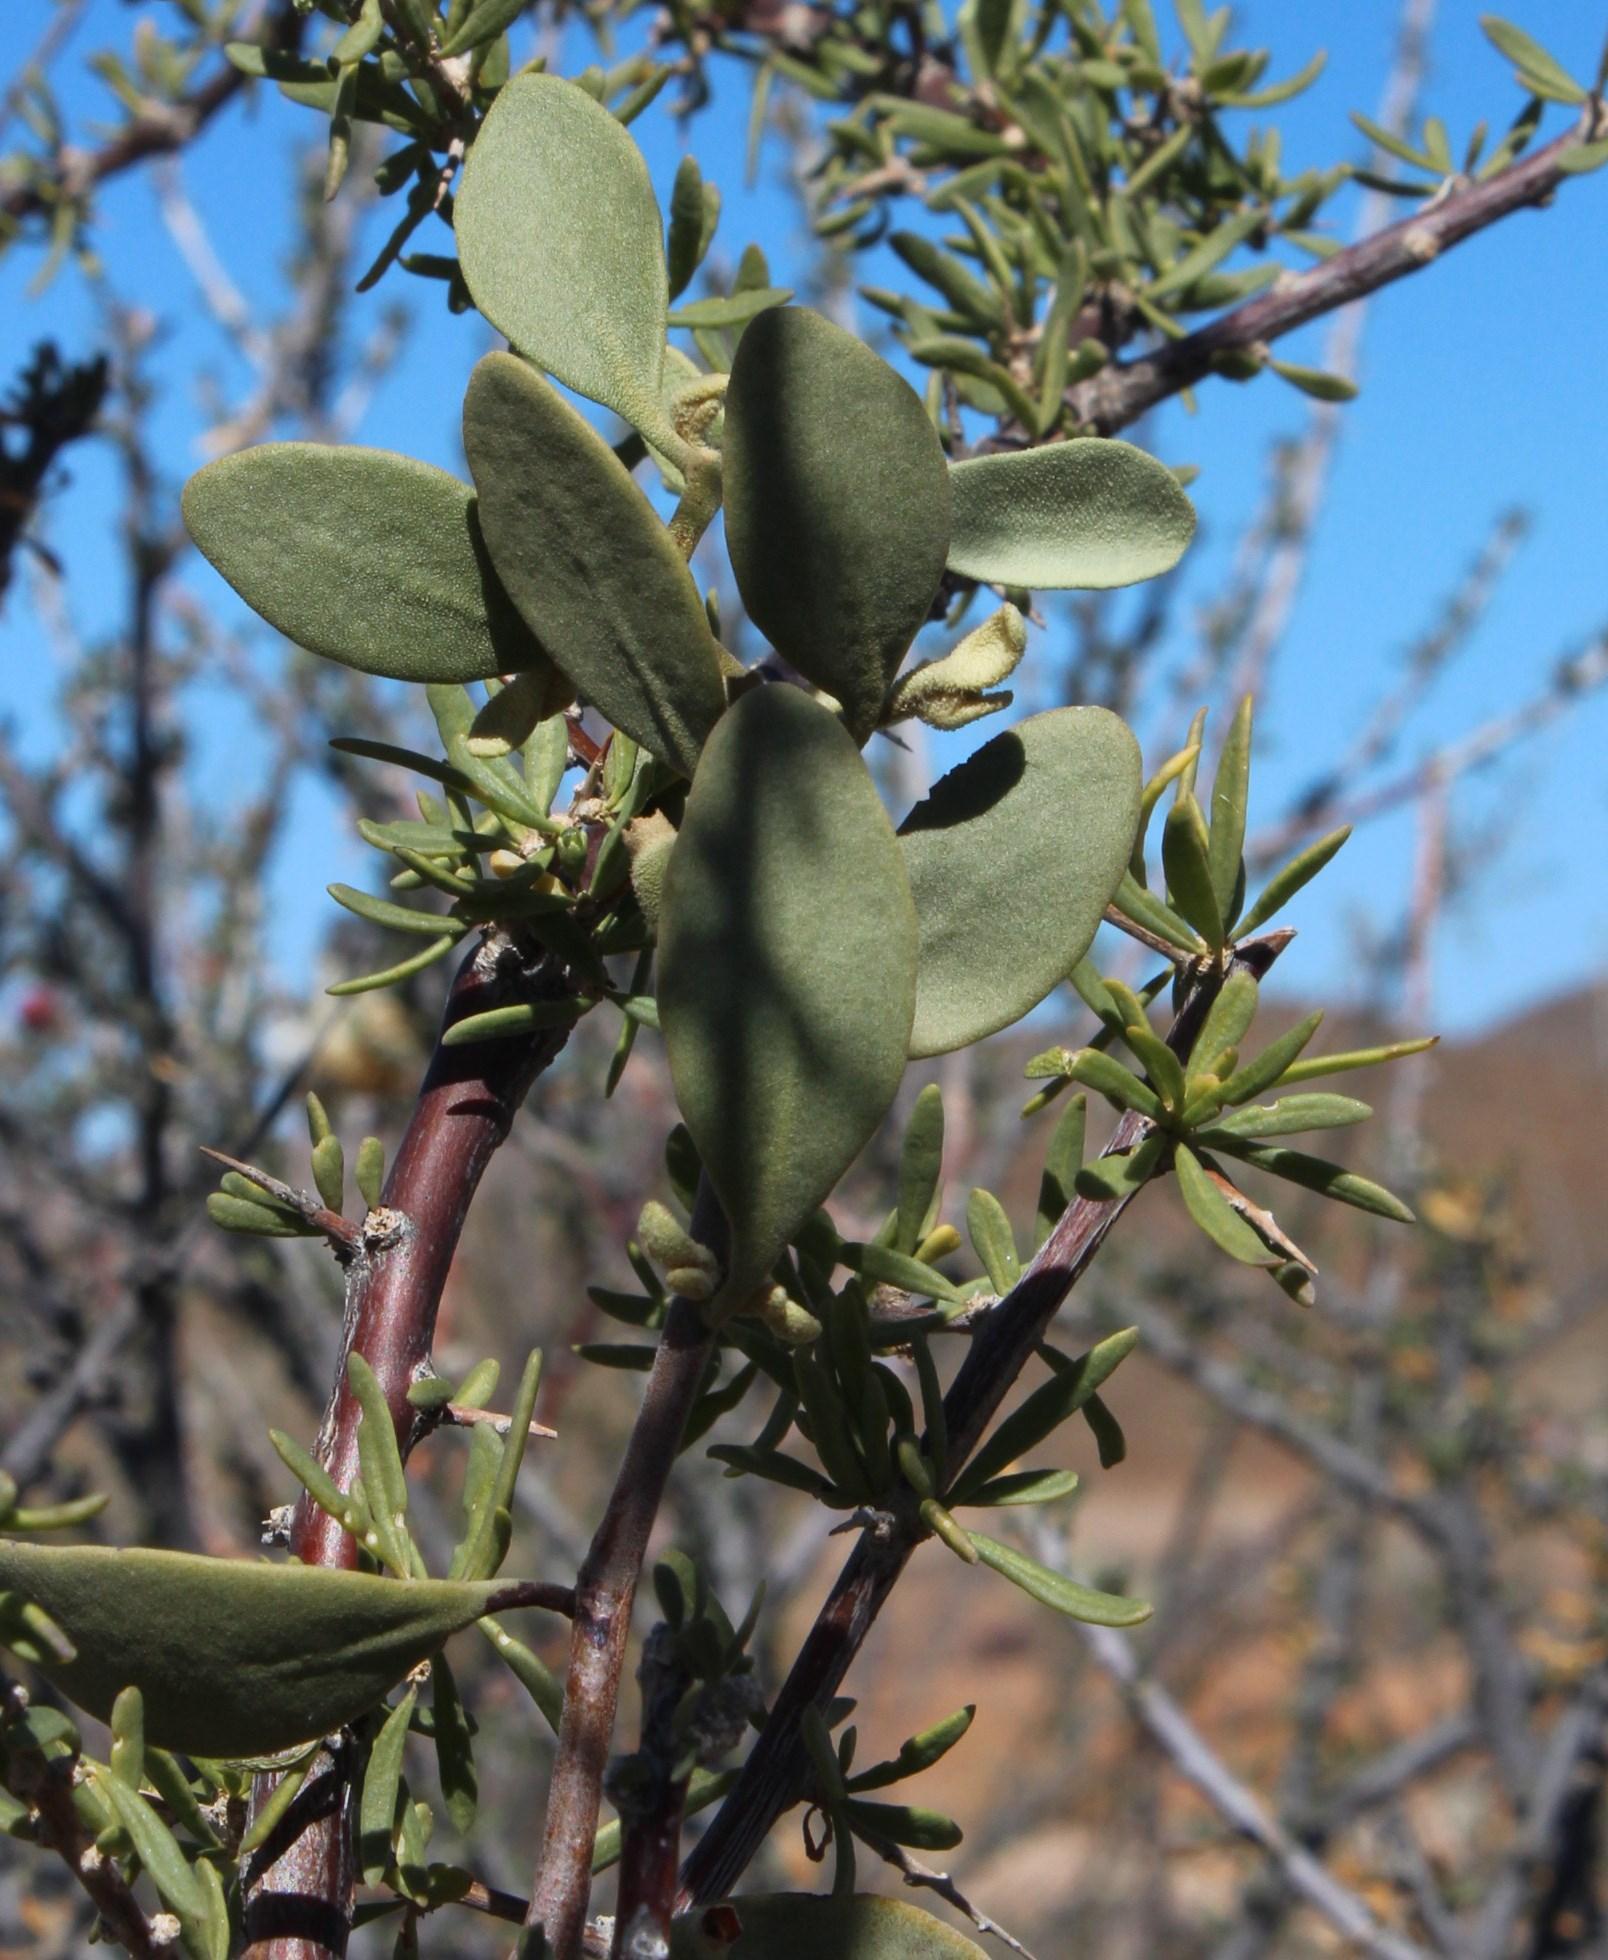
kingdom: Plantae
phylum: Tracheophyta
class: Magnoliopsida
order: Santalales
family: Loranthaceae
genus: Septulina
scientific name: Septulina ovalis
